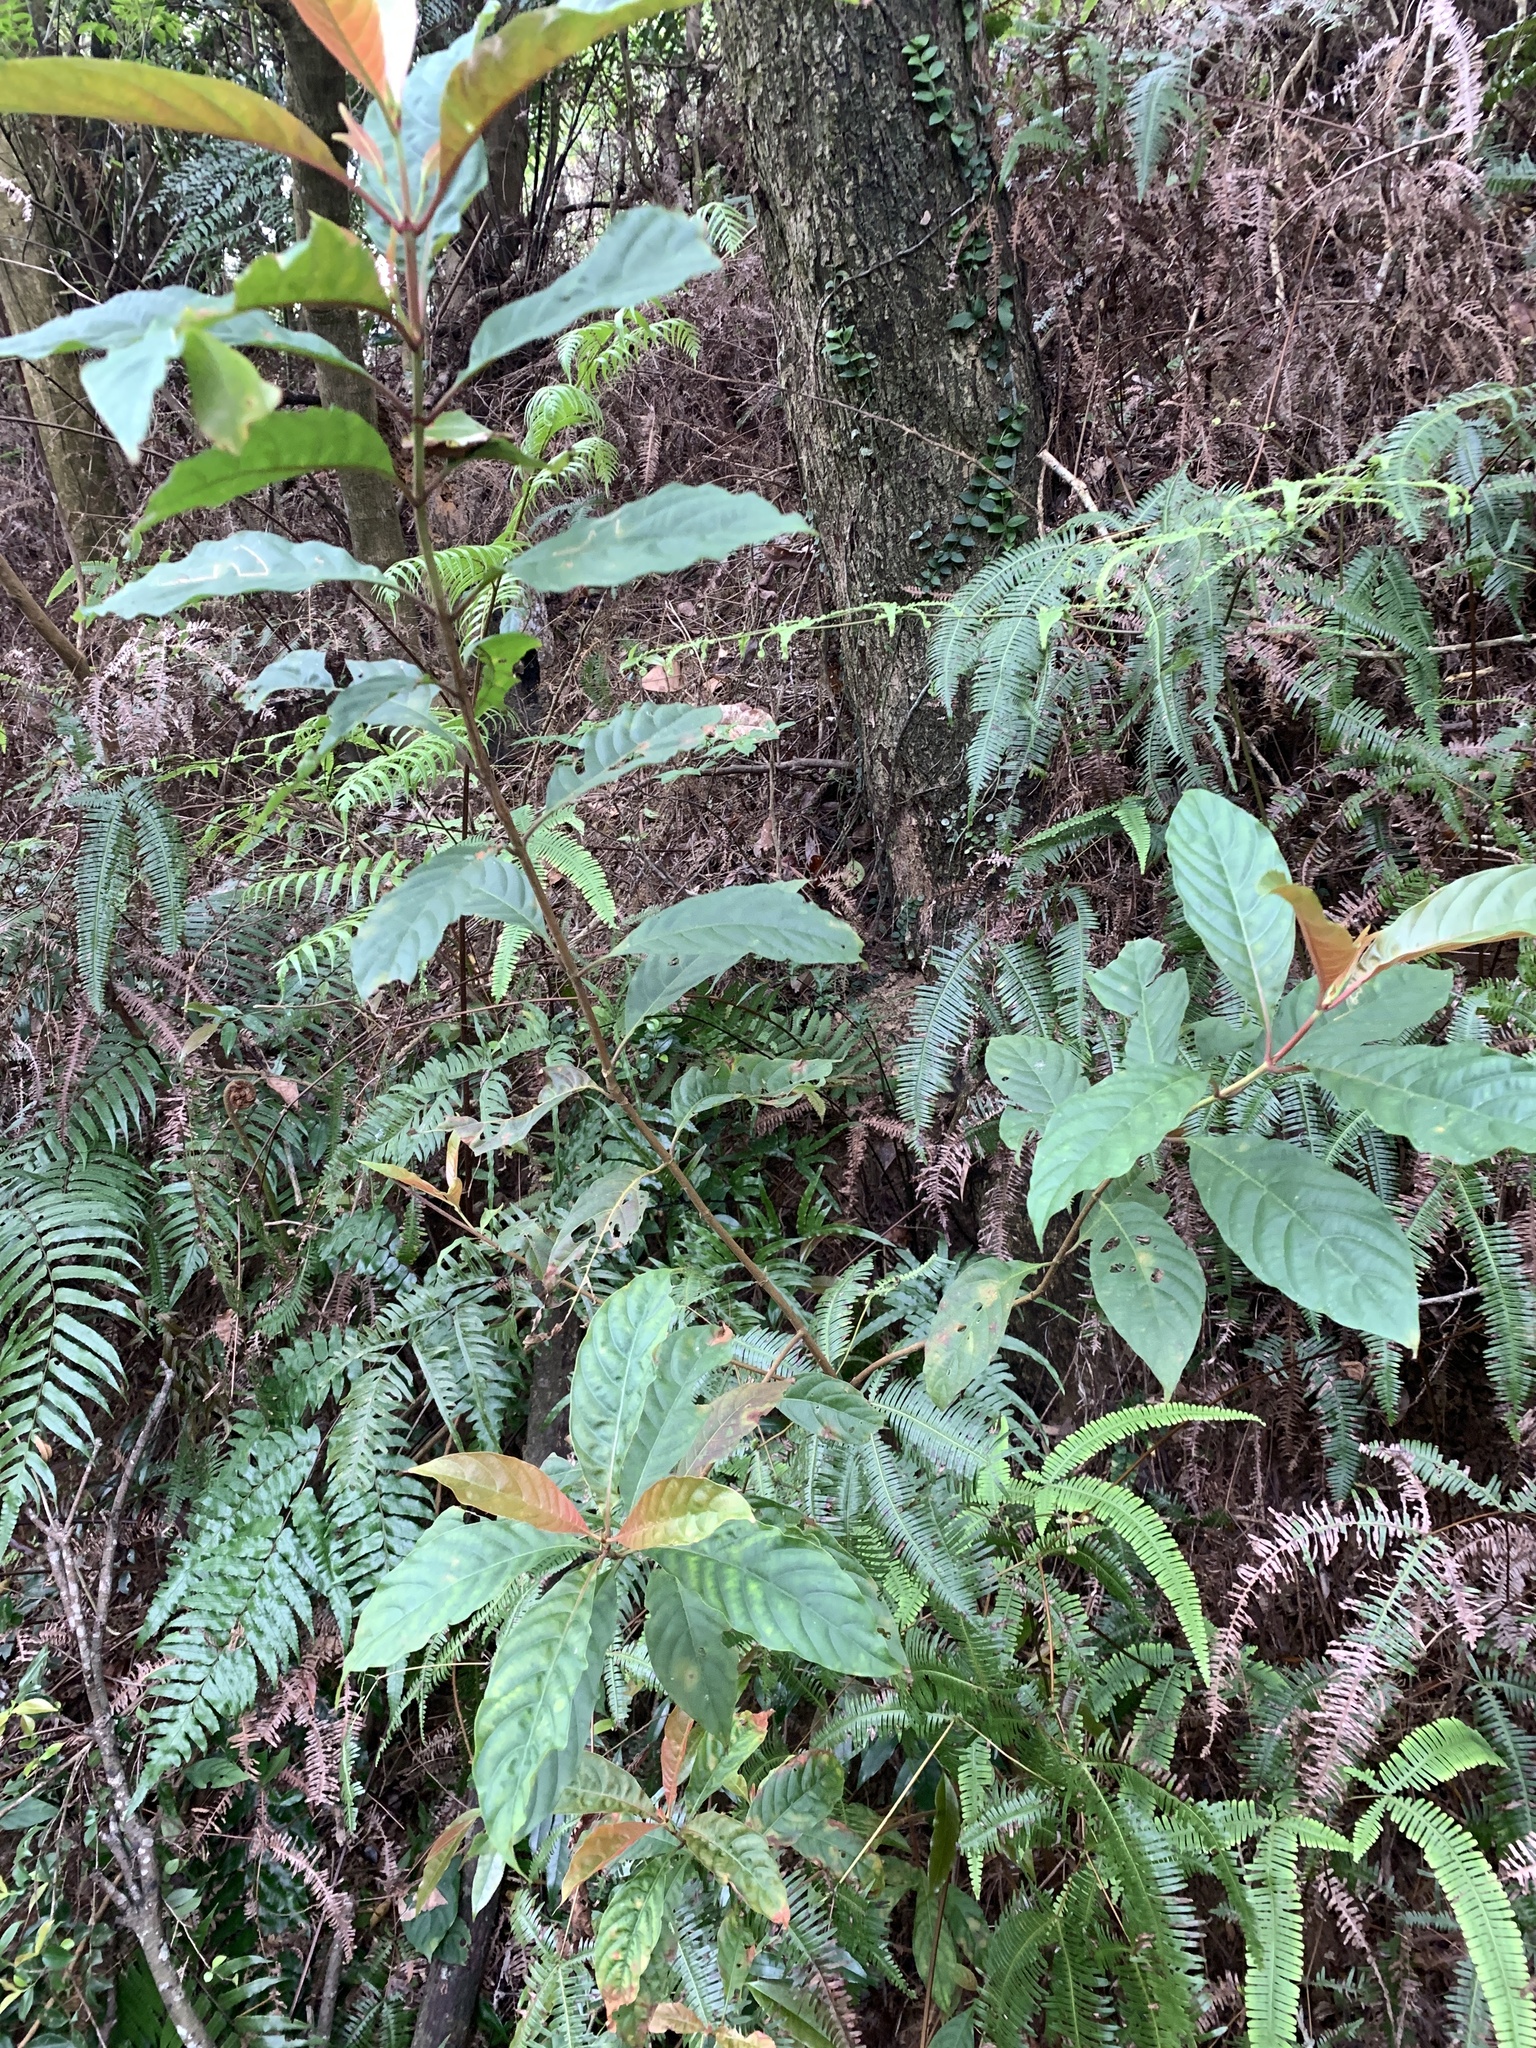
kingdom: Plantae
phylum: Tracheophyta
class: Magnoliopsida
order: Gentianales
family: Rubiaceae
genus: Wendlandia
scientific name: Wendlandia formosana
